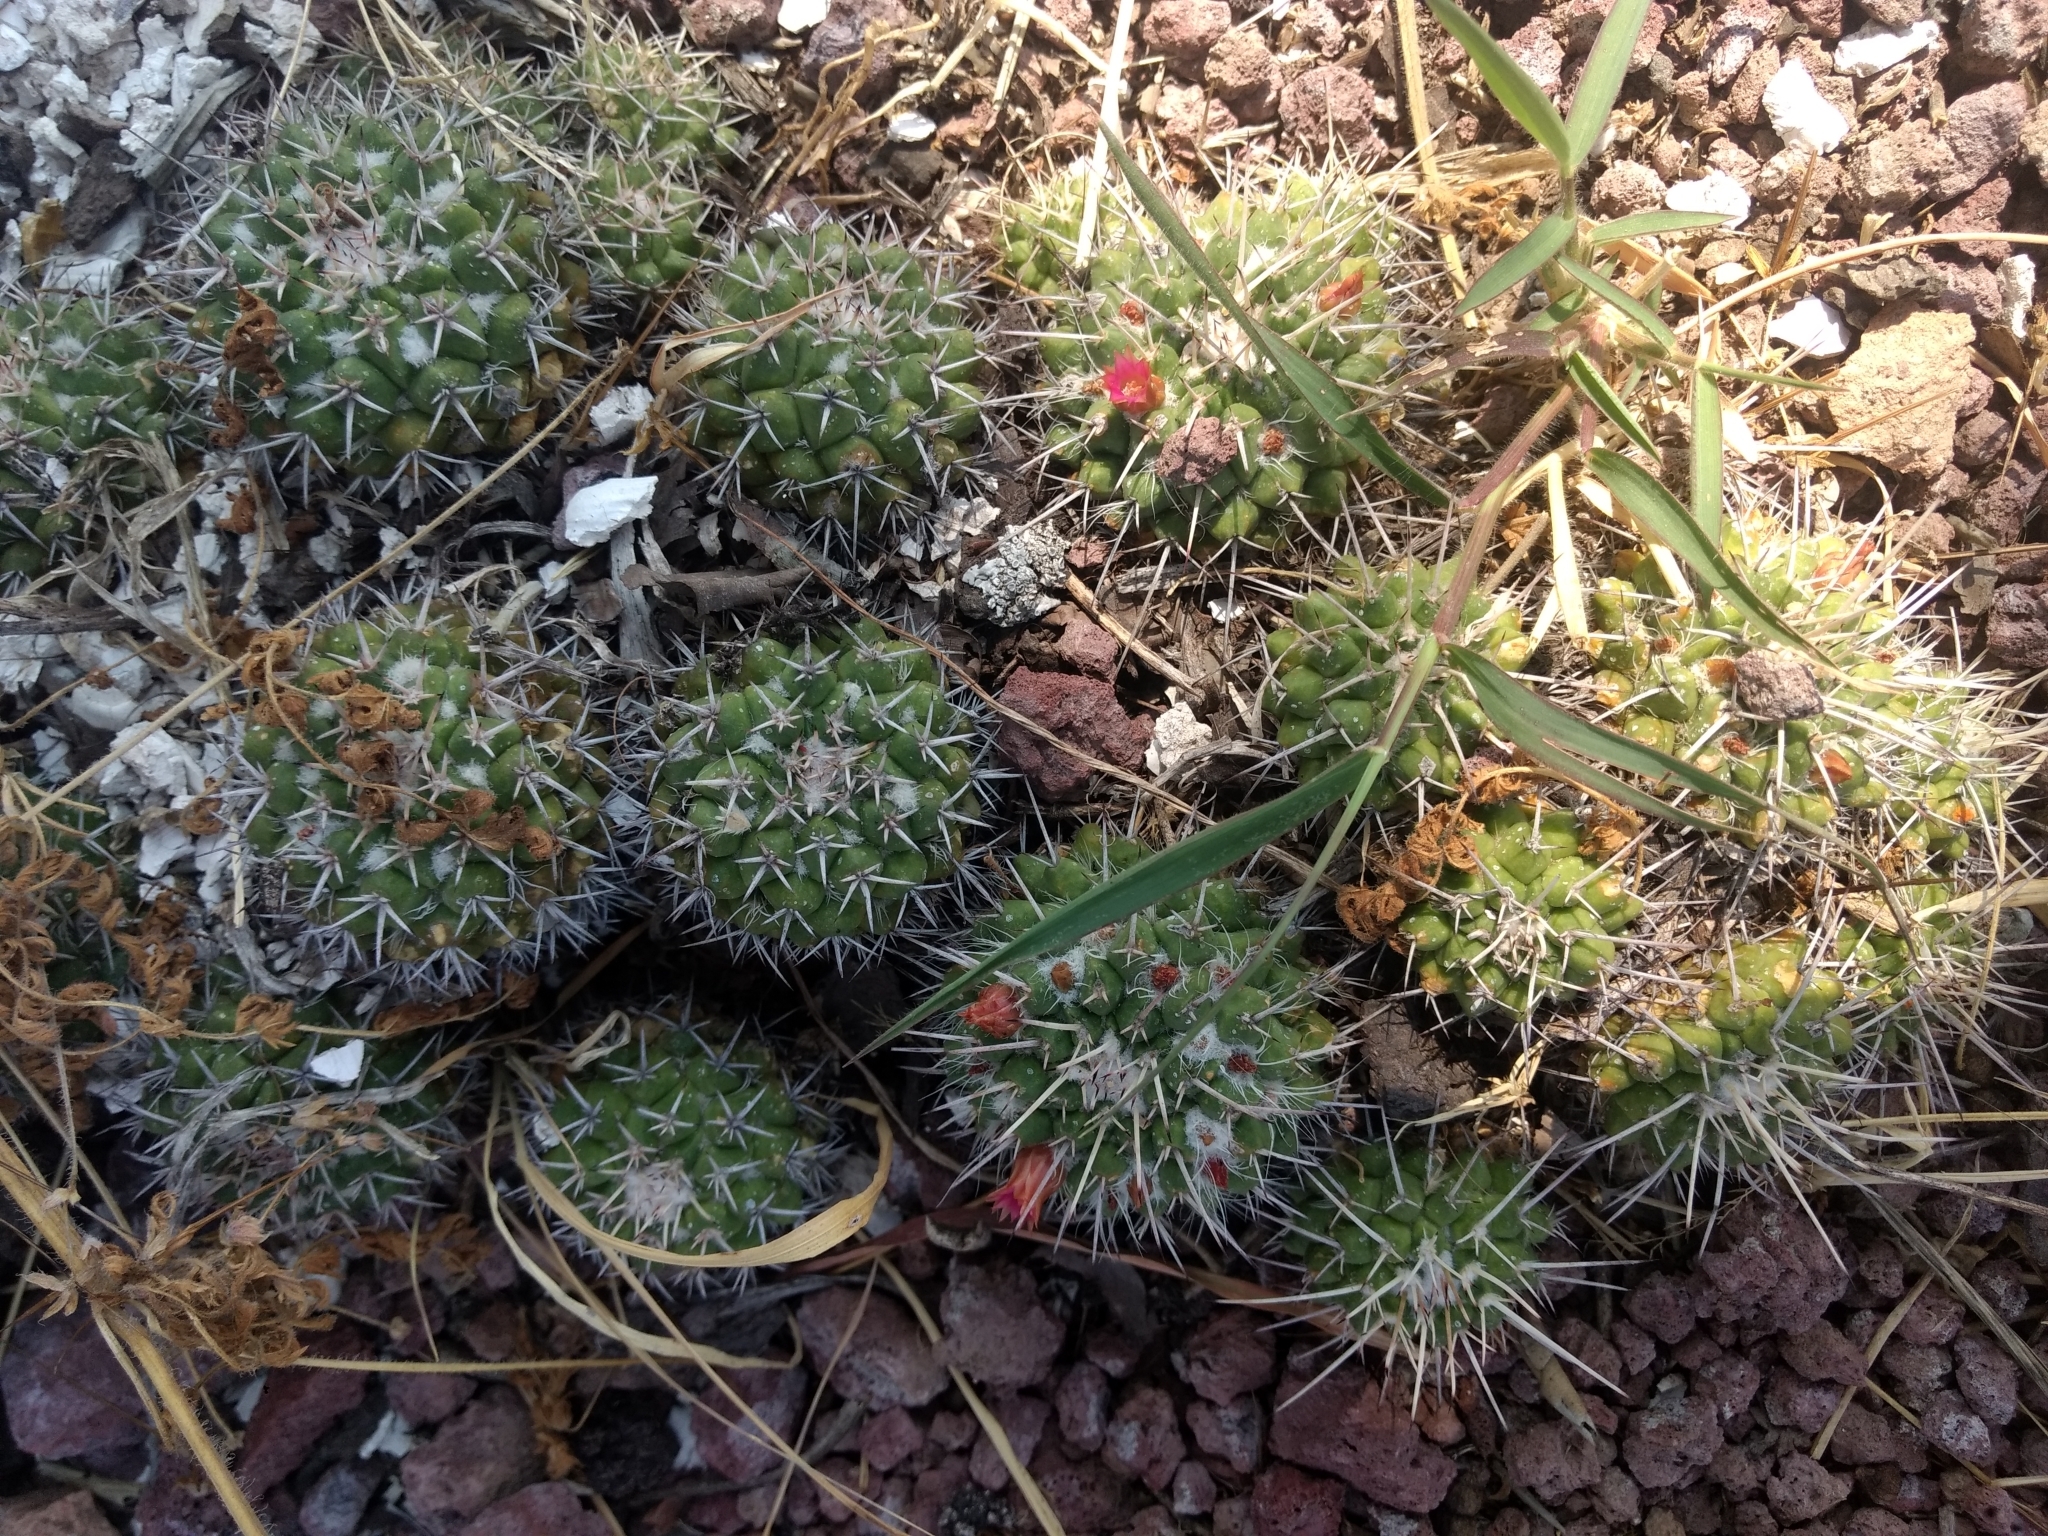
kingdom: Plantae
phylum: Tracheophyta
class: Magnoliopsida
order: Caryophyllales
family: Cactaceae
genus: Mammillaria
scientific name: Mammillaria compressa
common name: Mother-of-hundreds
